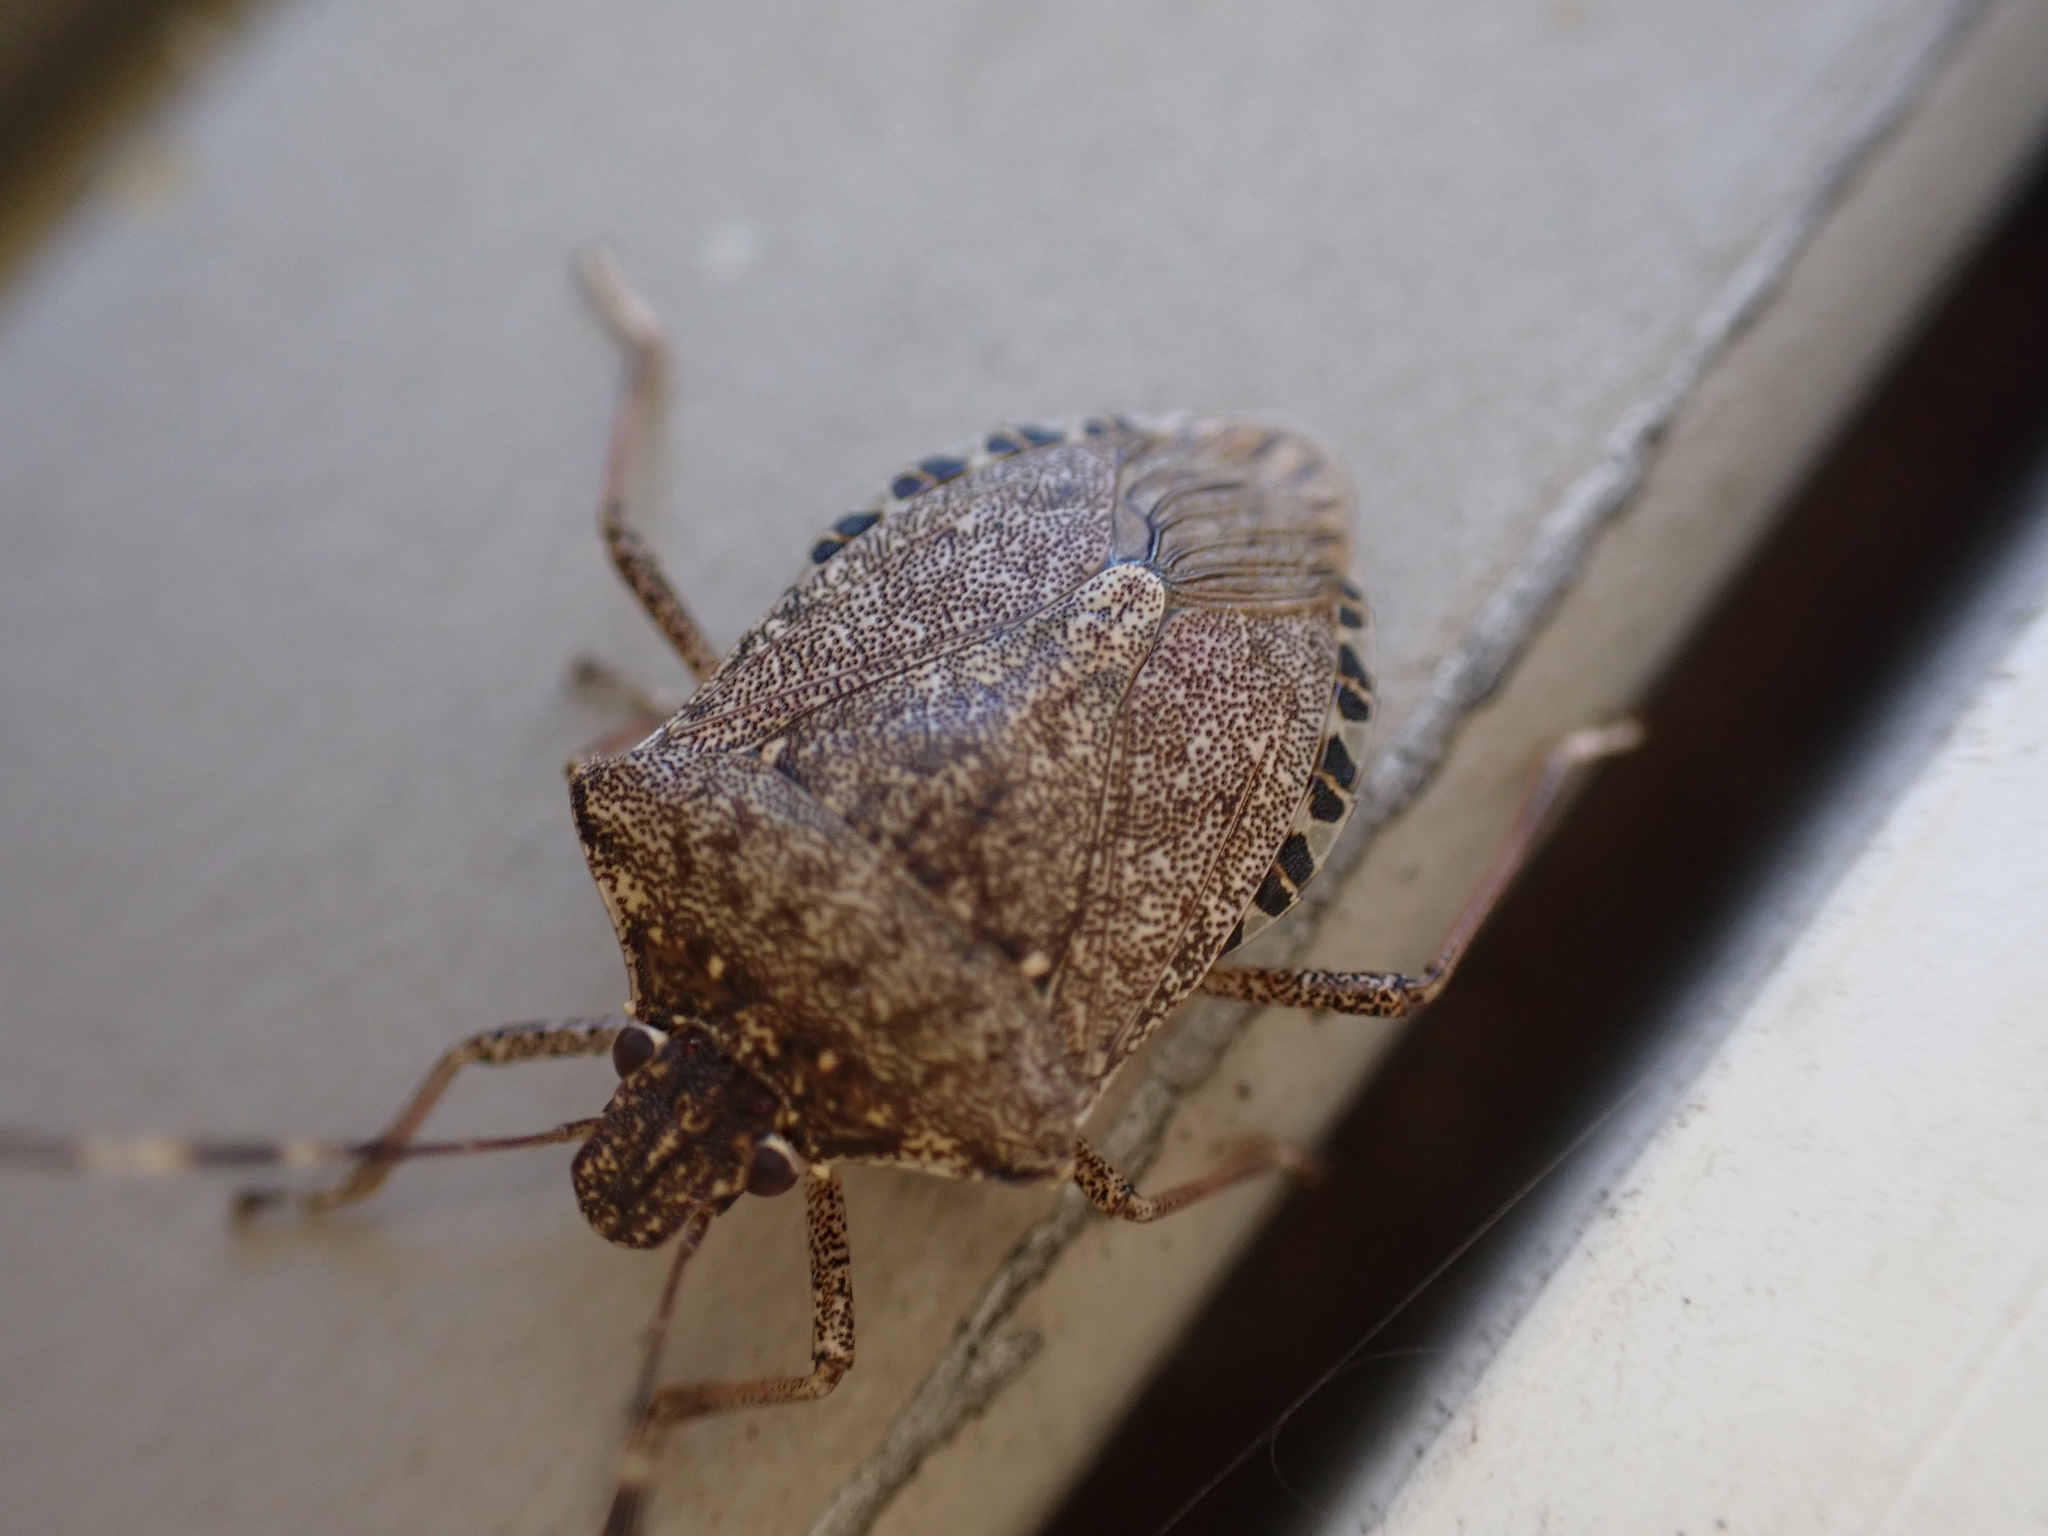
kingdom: Animalia
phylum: Arthropoda
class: Insecta
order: Hemiptera
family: Pentatomidae
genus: Halyomorpha
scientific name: Halyomorpha halys
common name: Brown marmorated stink bug
